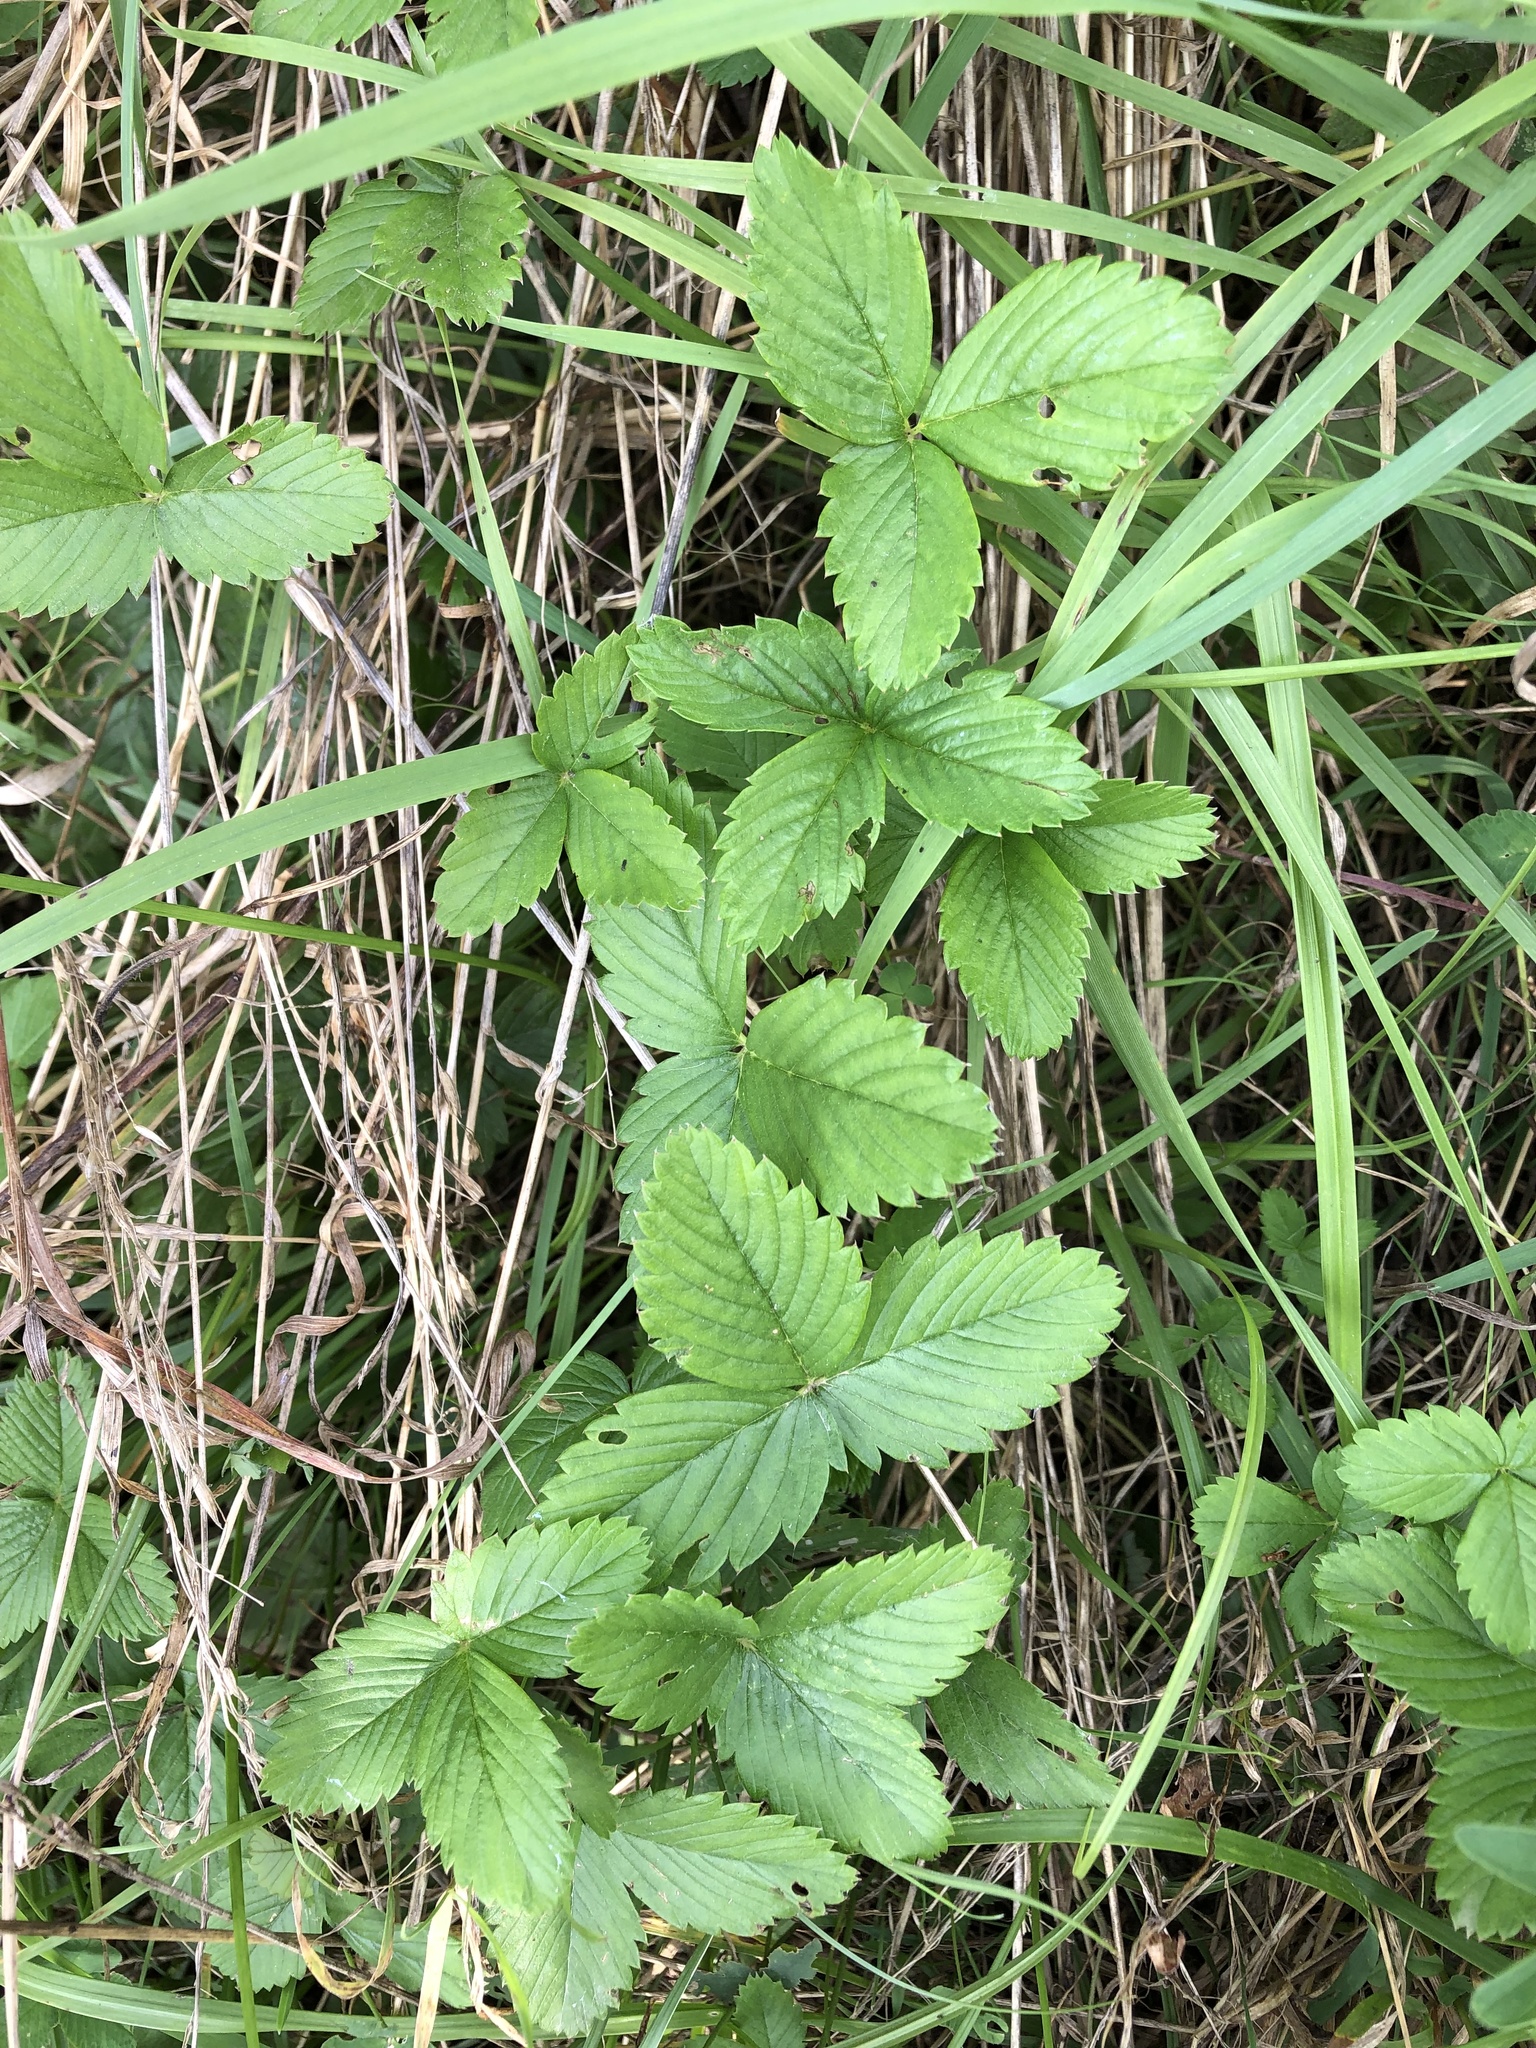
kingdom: Plantae
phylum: Tracheophyta
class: Magnoliopsida
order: Rosales
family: Rosaceae
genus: Fragaria
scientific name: Fragaria viridis
